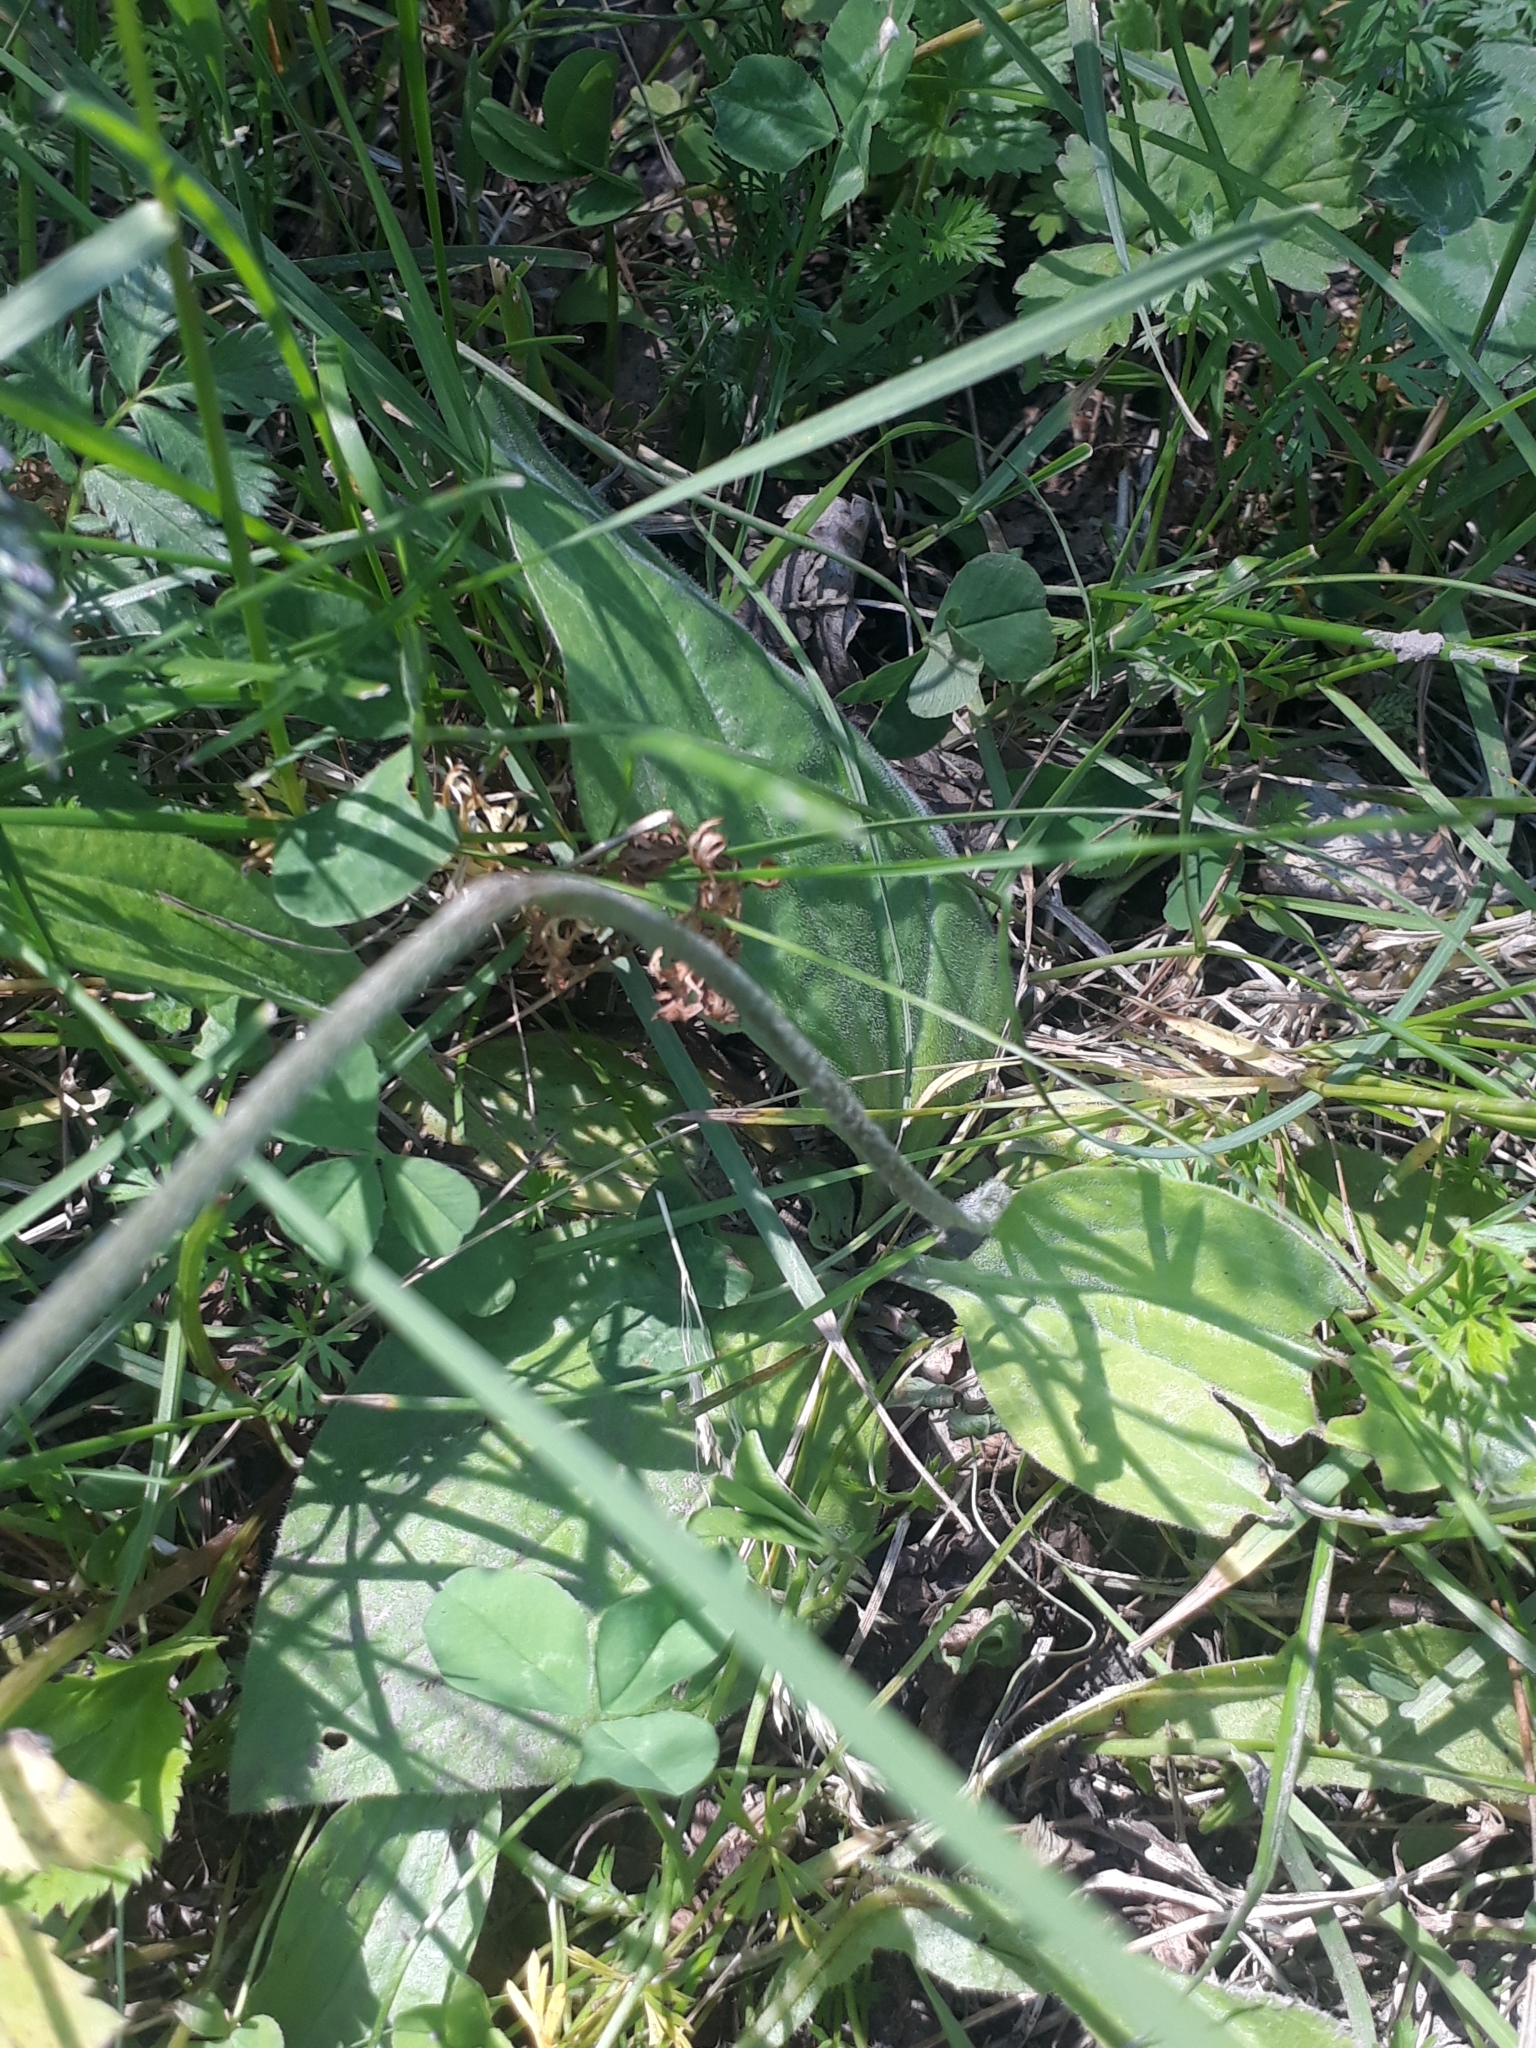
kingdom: Plantae
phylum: Tracheophyta
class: Magnoliopsida
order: Lamiales
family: Plantaginaceae
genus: Plantago
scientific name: Plantago media
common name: Hoary plantain
